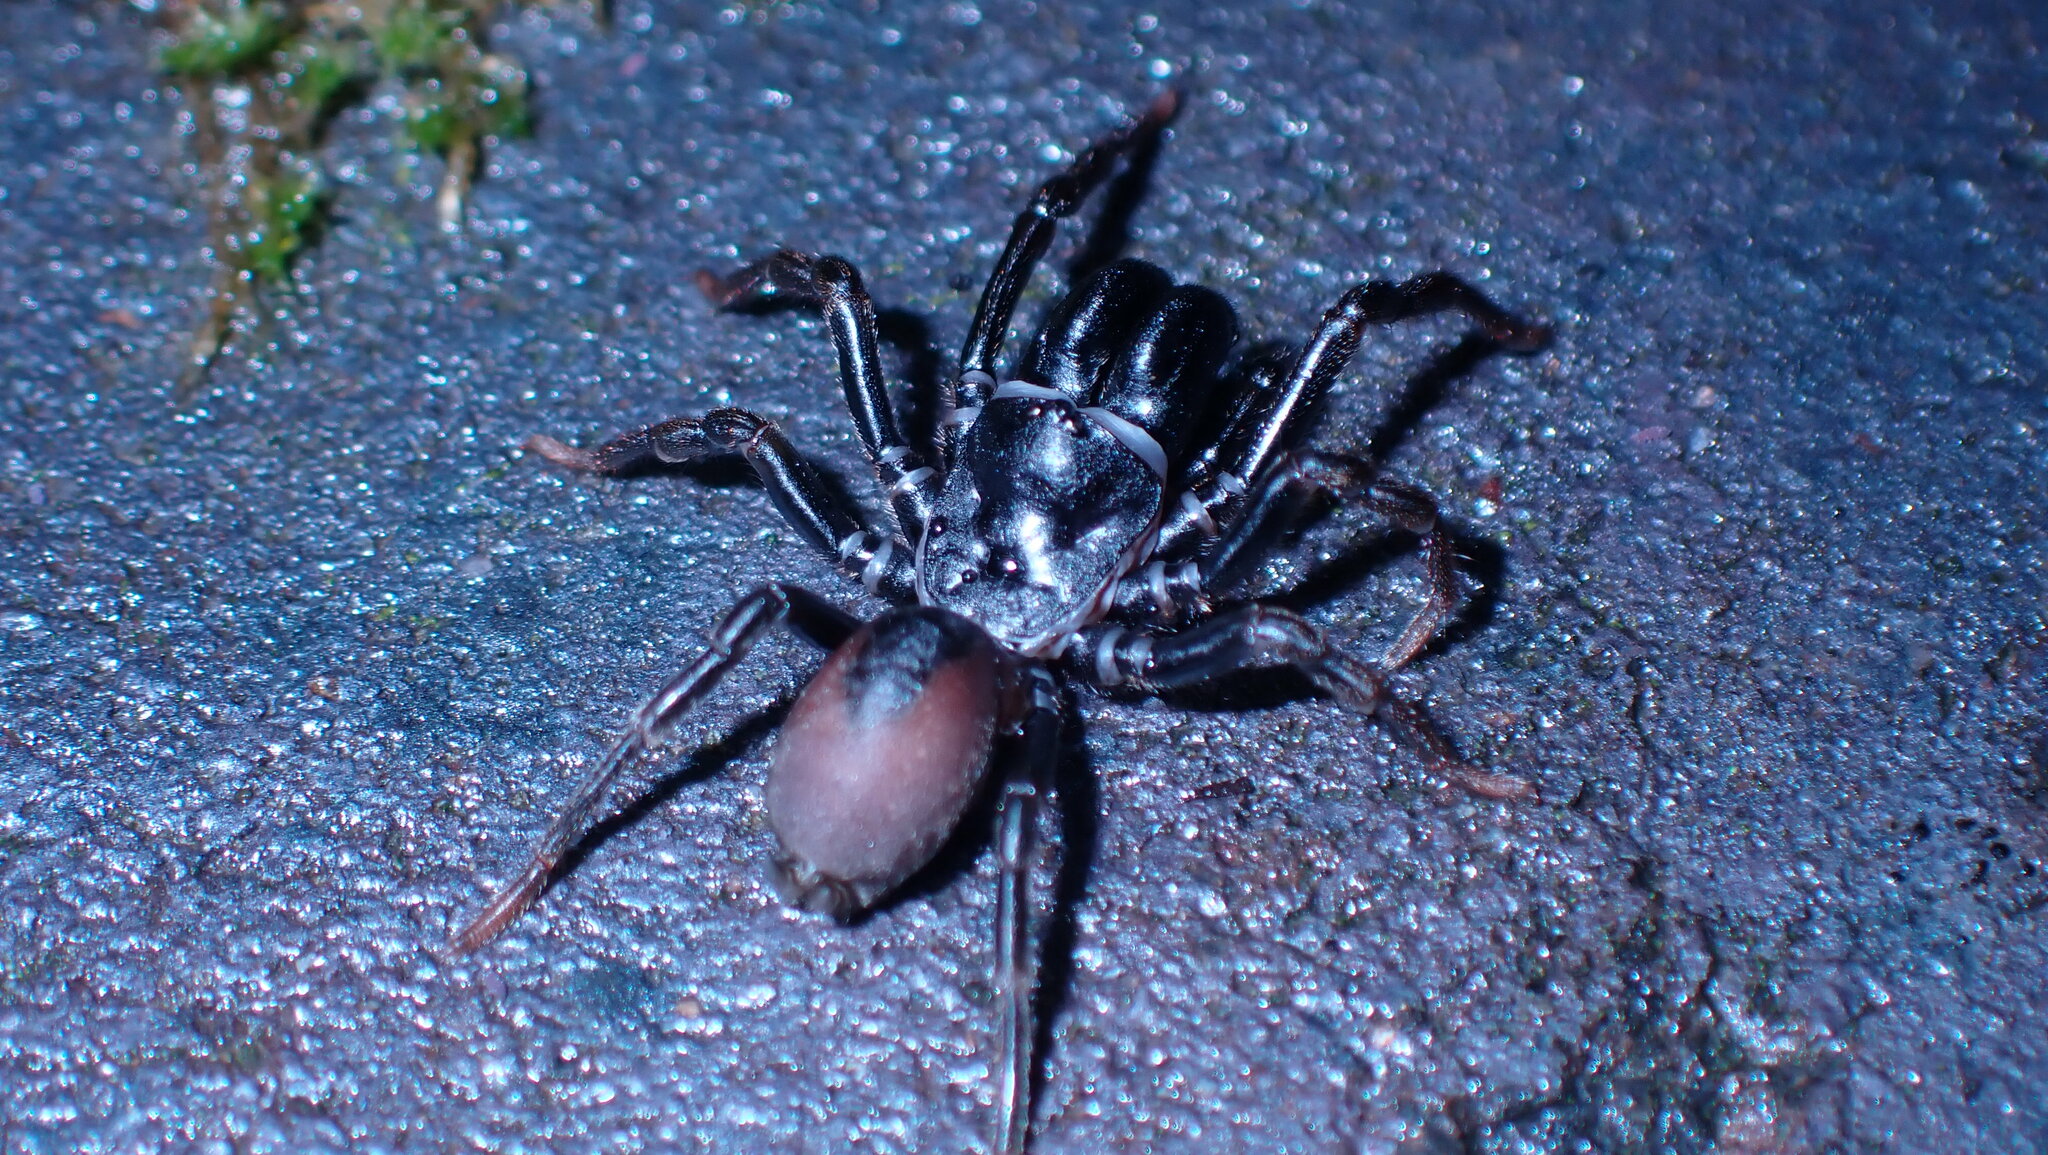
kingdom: Animalia
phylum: Arthropoda
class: Arachnida
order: Araneae
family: Atypidae
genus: Atypus
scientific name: Atypus affinis
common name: Purse web spider
